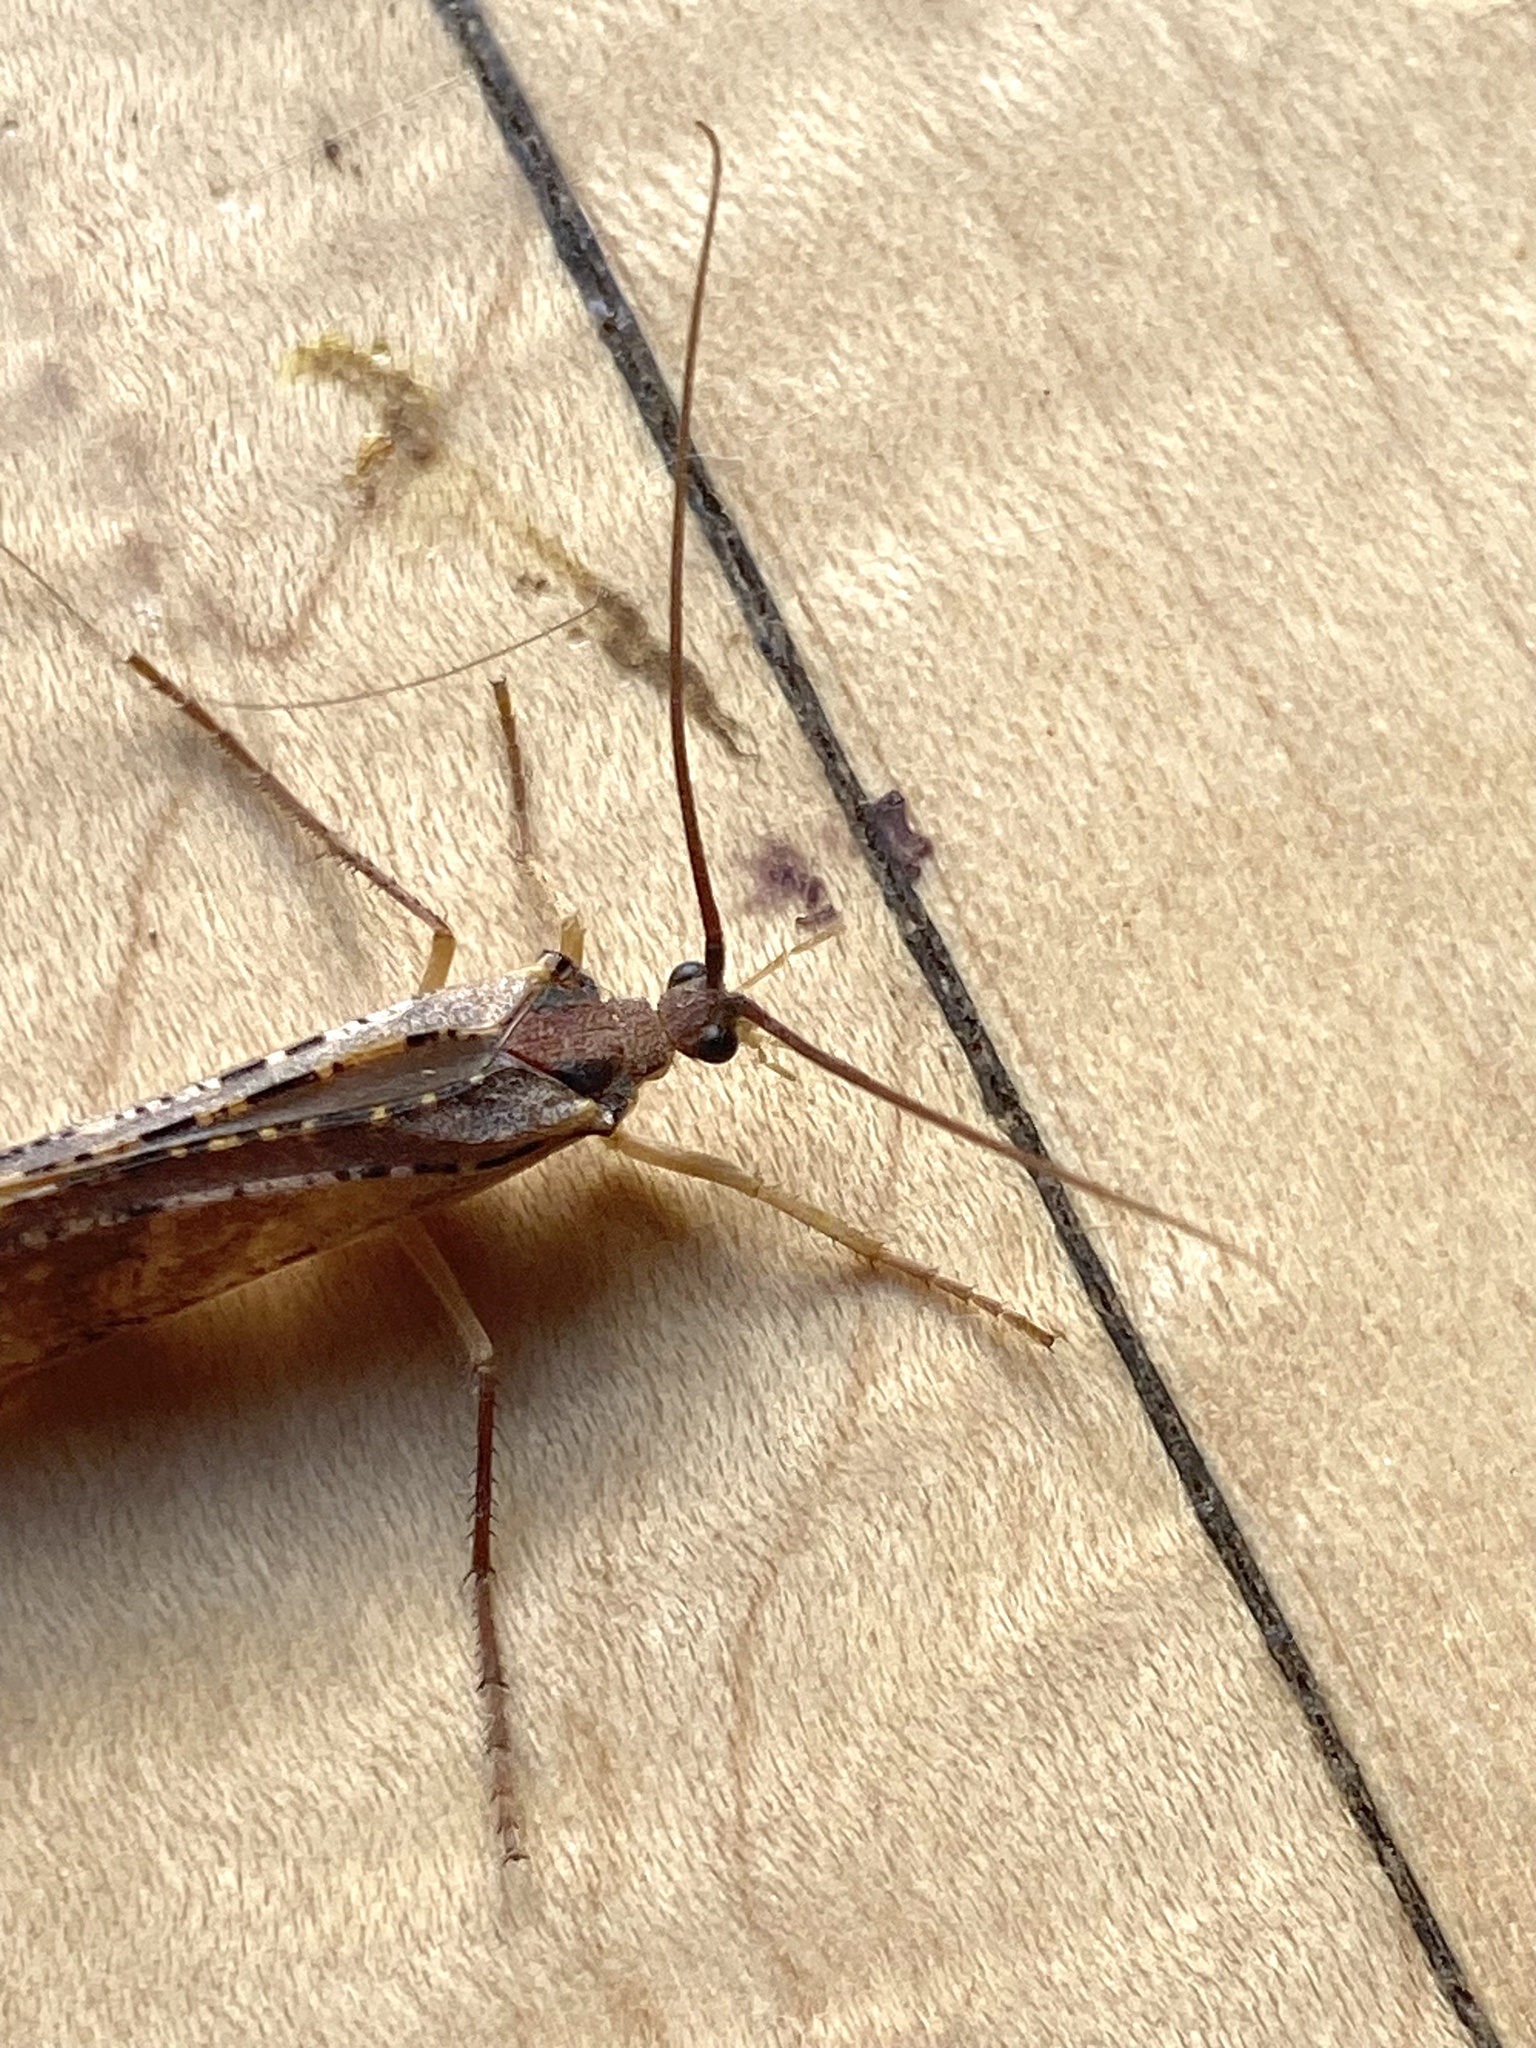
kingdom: Animalia
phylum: Arthropoda
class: Insecta
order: Trichoptera
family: Limnephilidae
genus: Nemotaulius
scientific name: Nemotaulius hostilis
